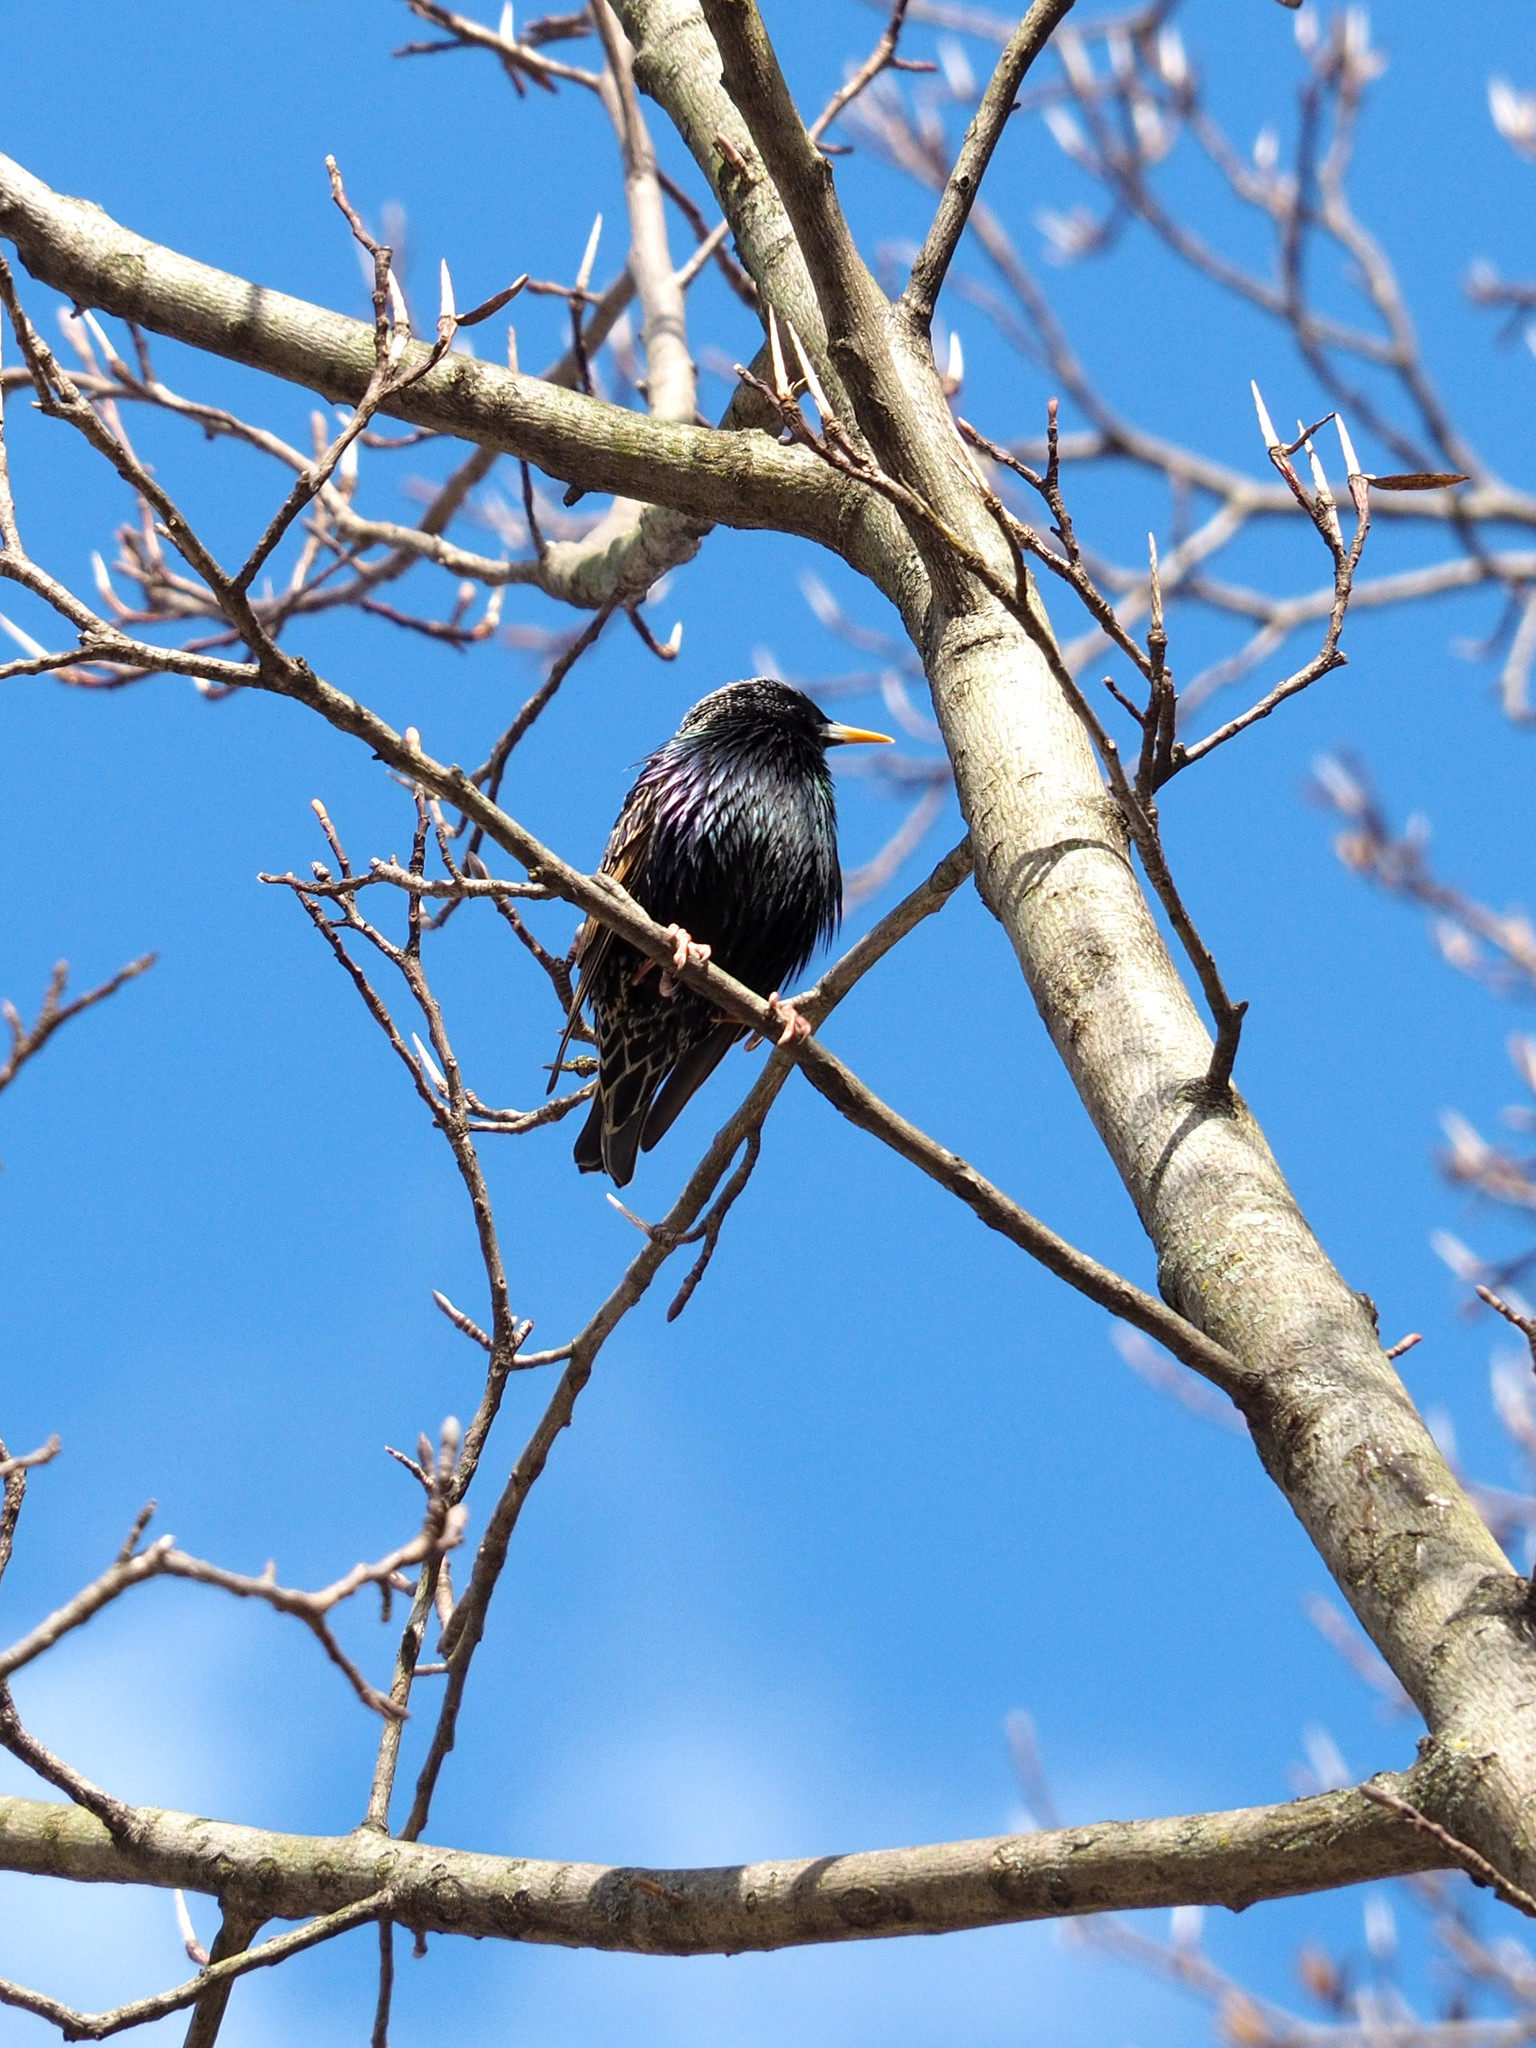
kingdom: Animalia
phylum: Chordata
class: Aves
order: Passeriformes
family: Sturnidae
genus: Sturnus
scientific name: Sturnus vulgaris
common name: Common starling
